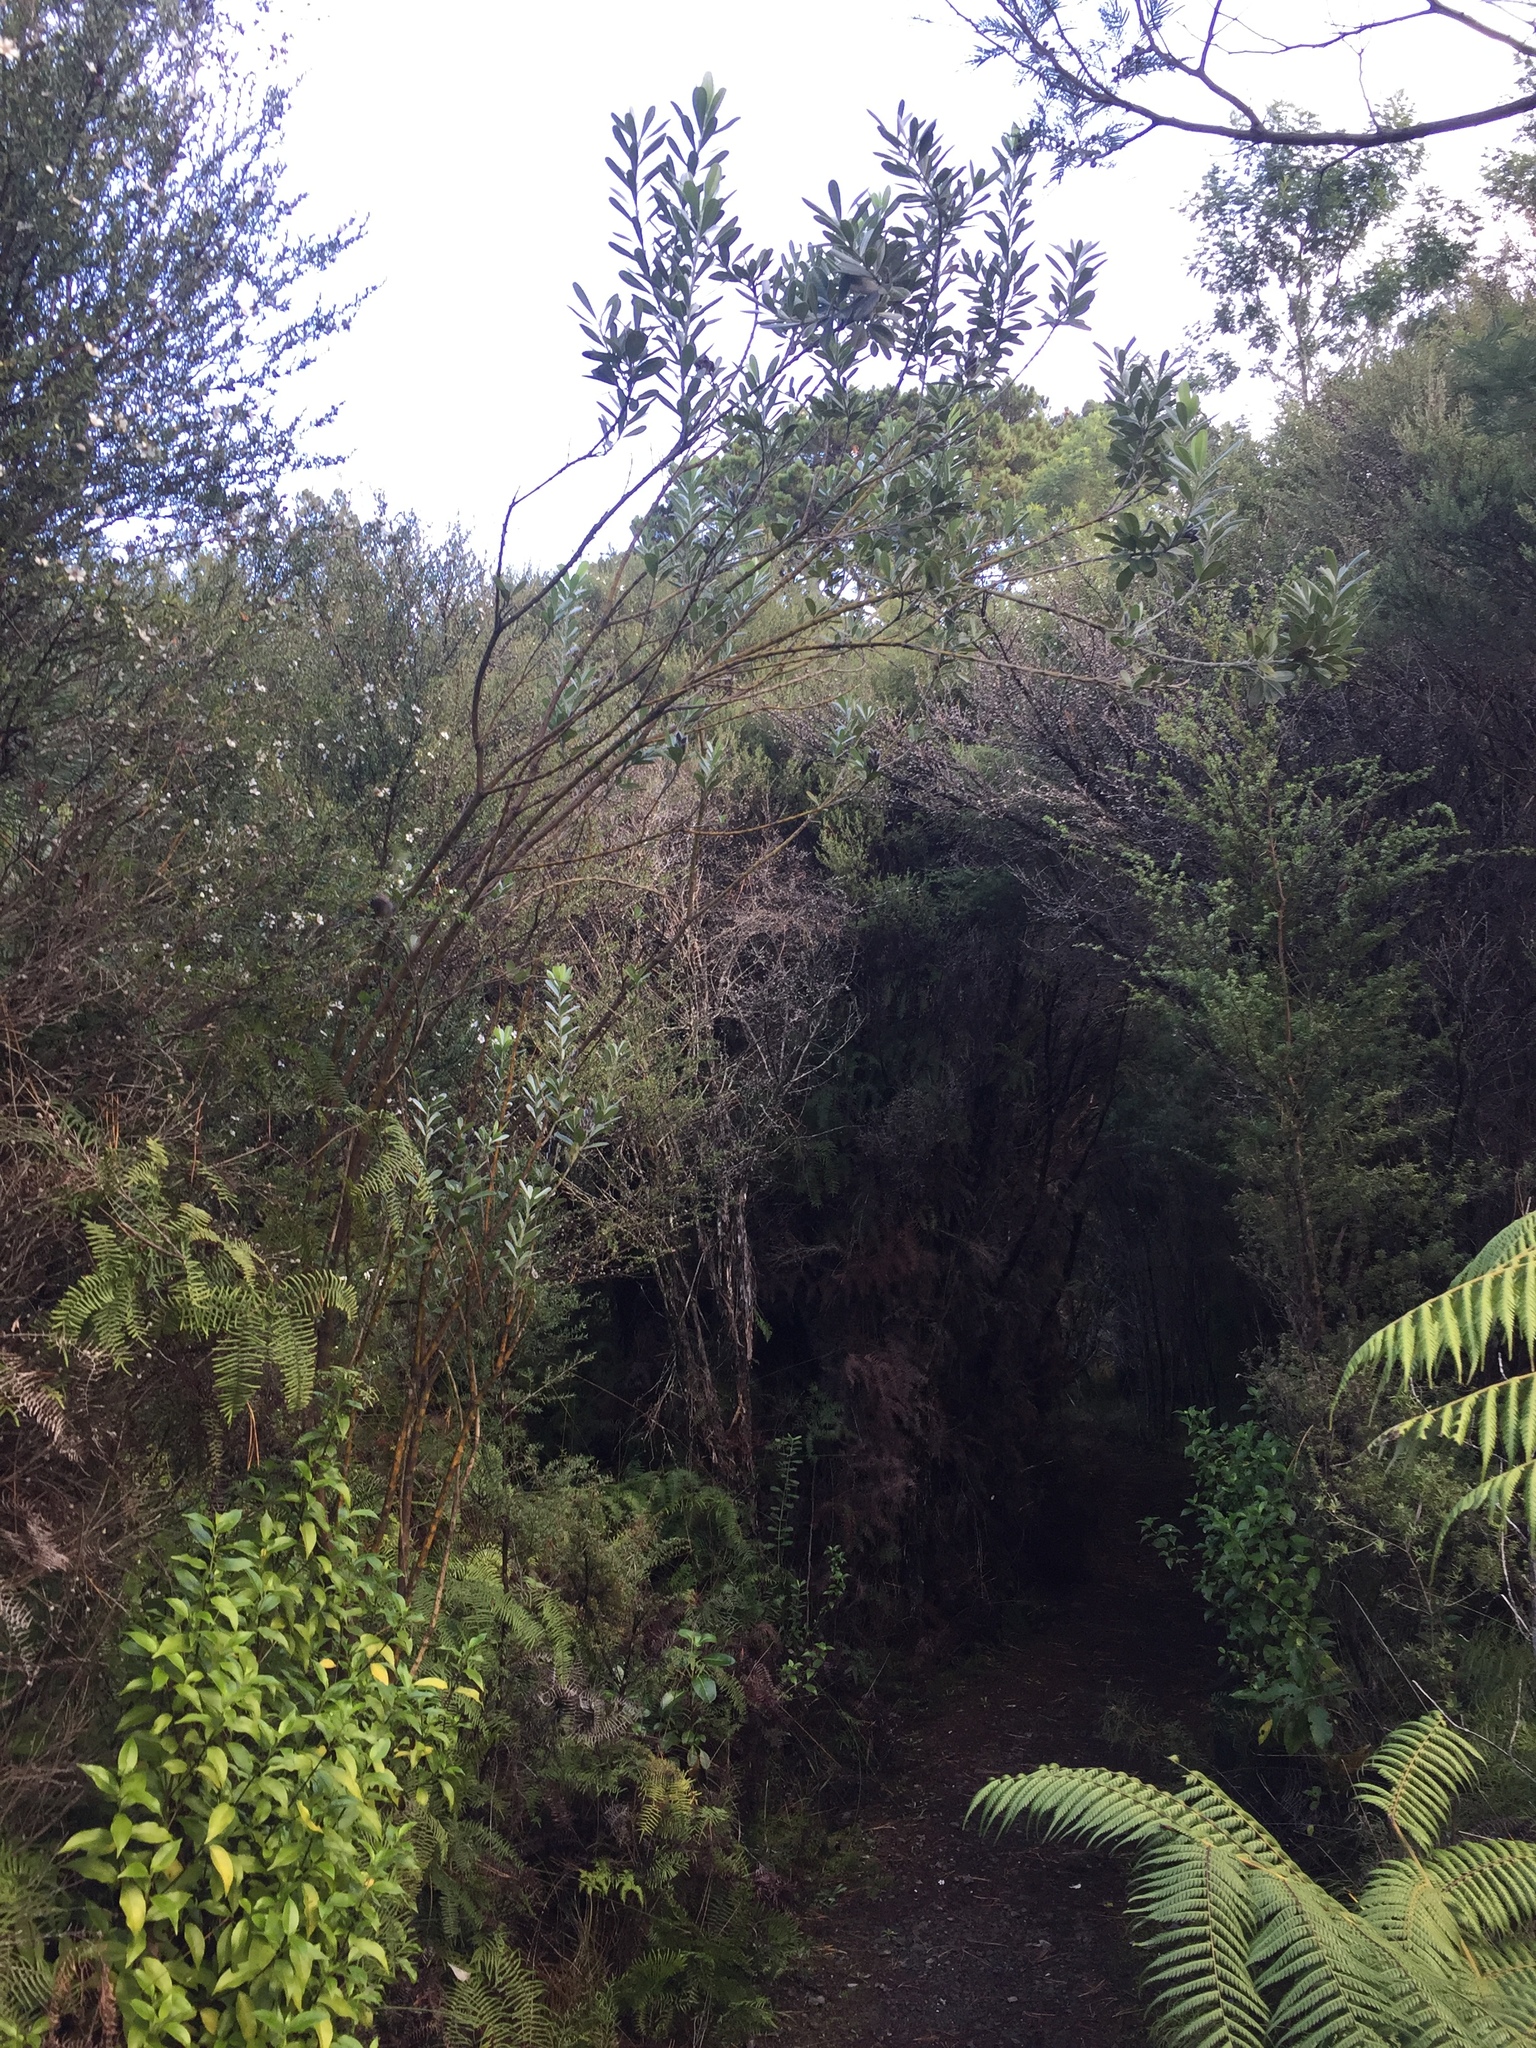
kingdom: Plantae
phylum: Tracheophyta
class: Magnoliopsida
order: Fabales
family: Fabaceae
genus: Callistachys
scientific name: Callistachys lanceolata
